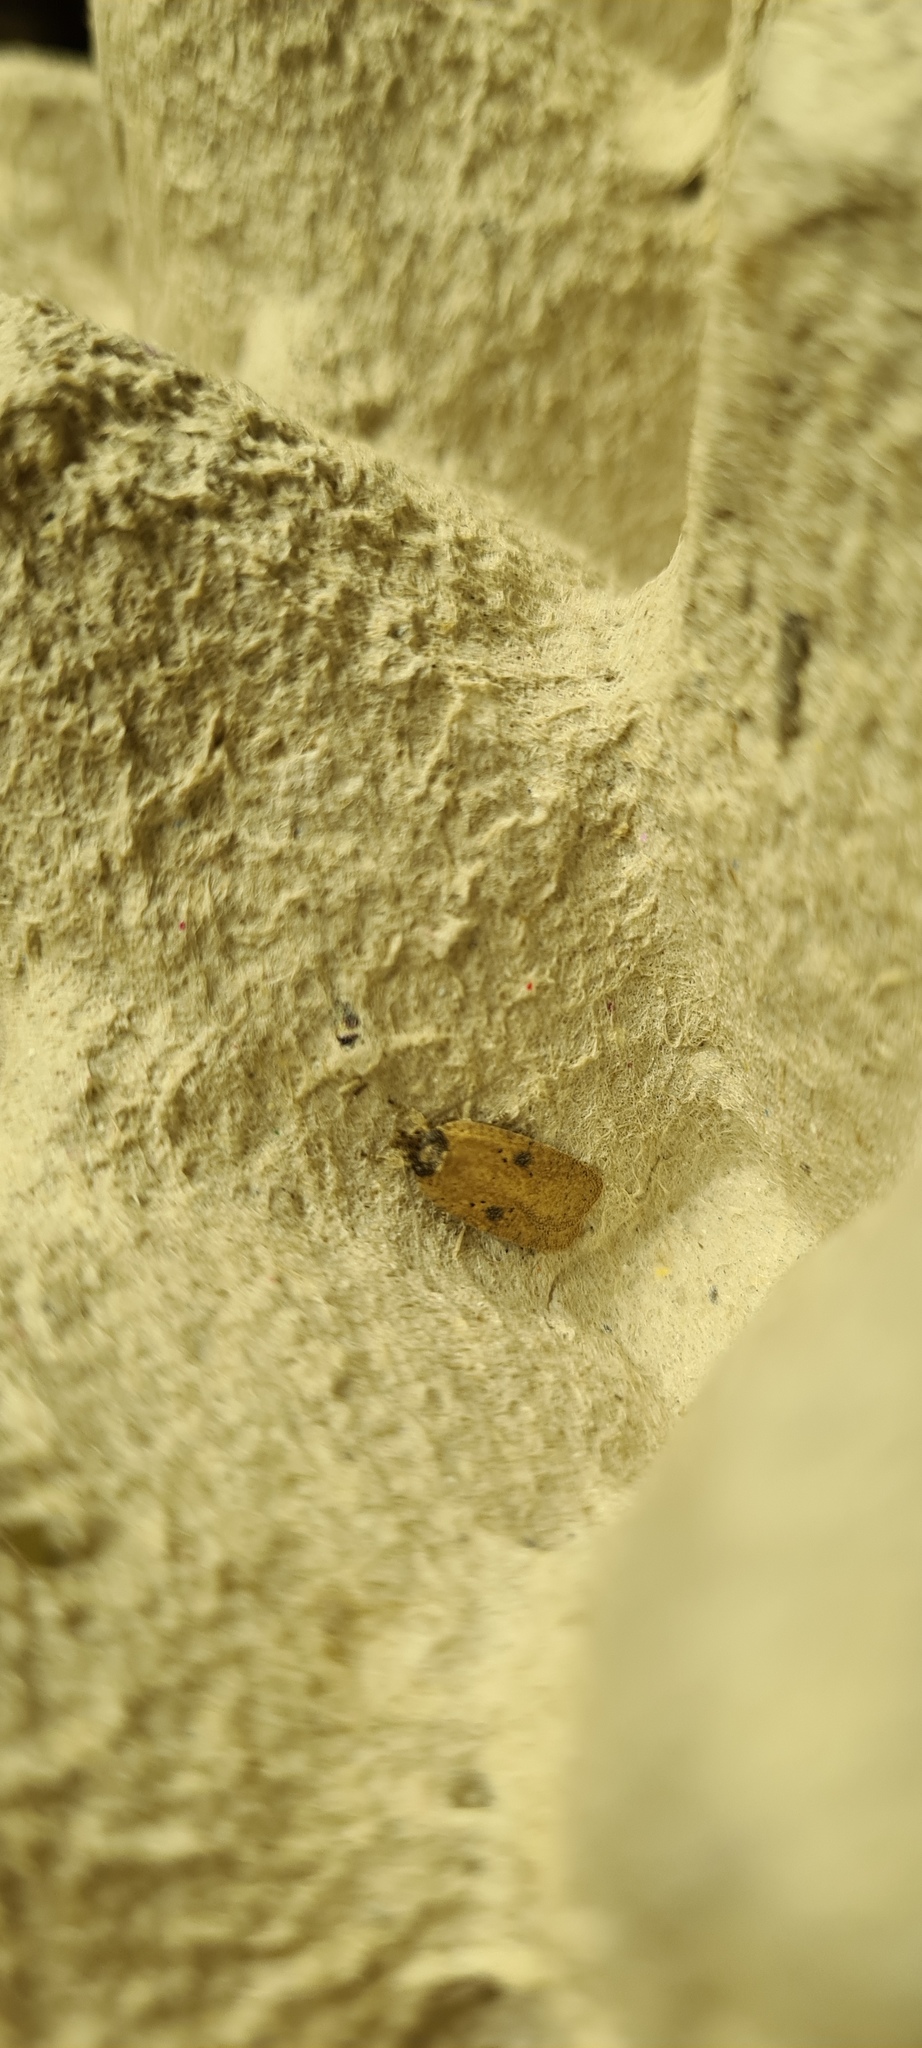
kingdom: Animalia
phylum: Arthropoda
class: Insecta
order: Lepidoptera
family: Depressariidae
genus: Agonopterix
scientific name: Agonopterix subpropinquella
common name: Ruddy flat-body
